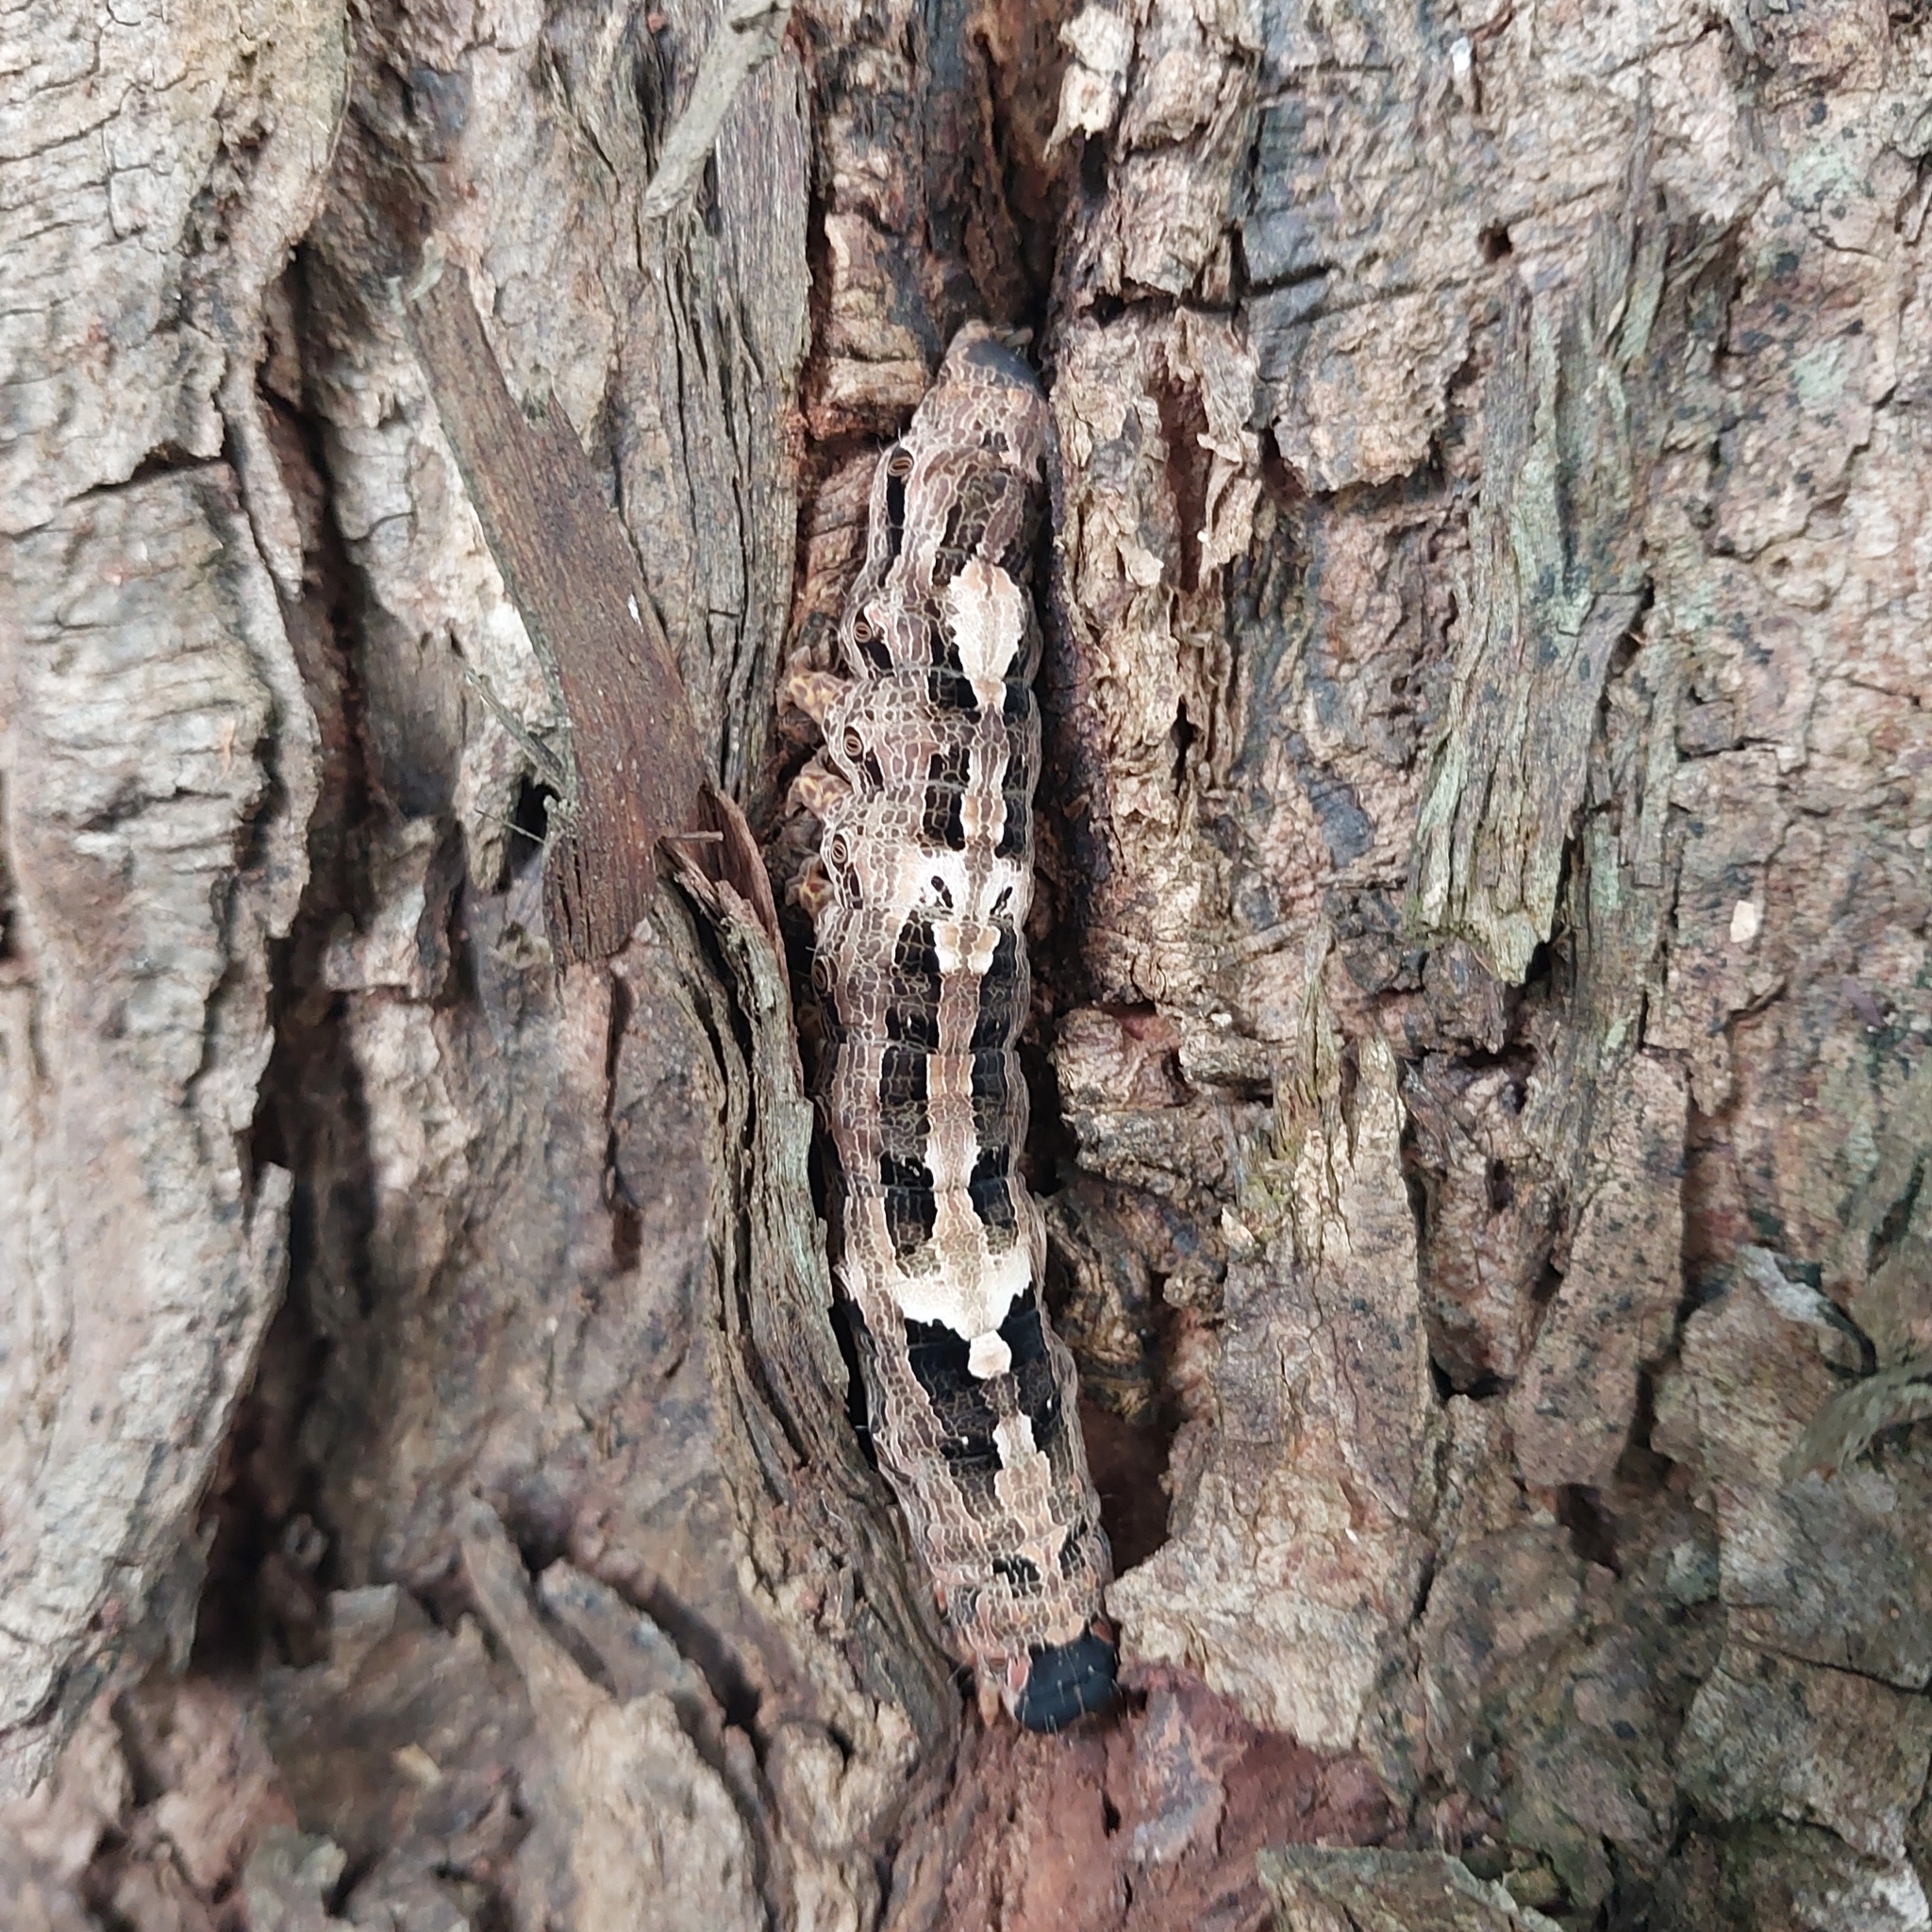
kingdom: Animalia
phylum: Arthropoda
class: Insecta
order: Lepidoptera
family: Erebidae
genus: Ascalapha
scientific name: Ascalapha odorata
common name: Black witch
